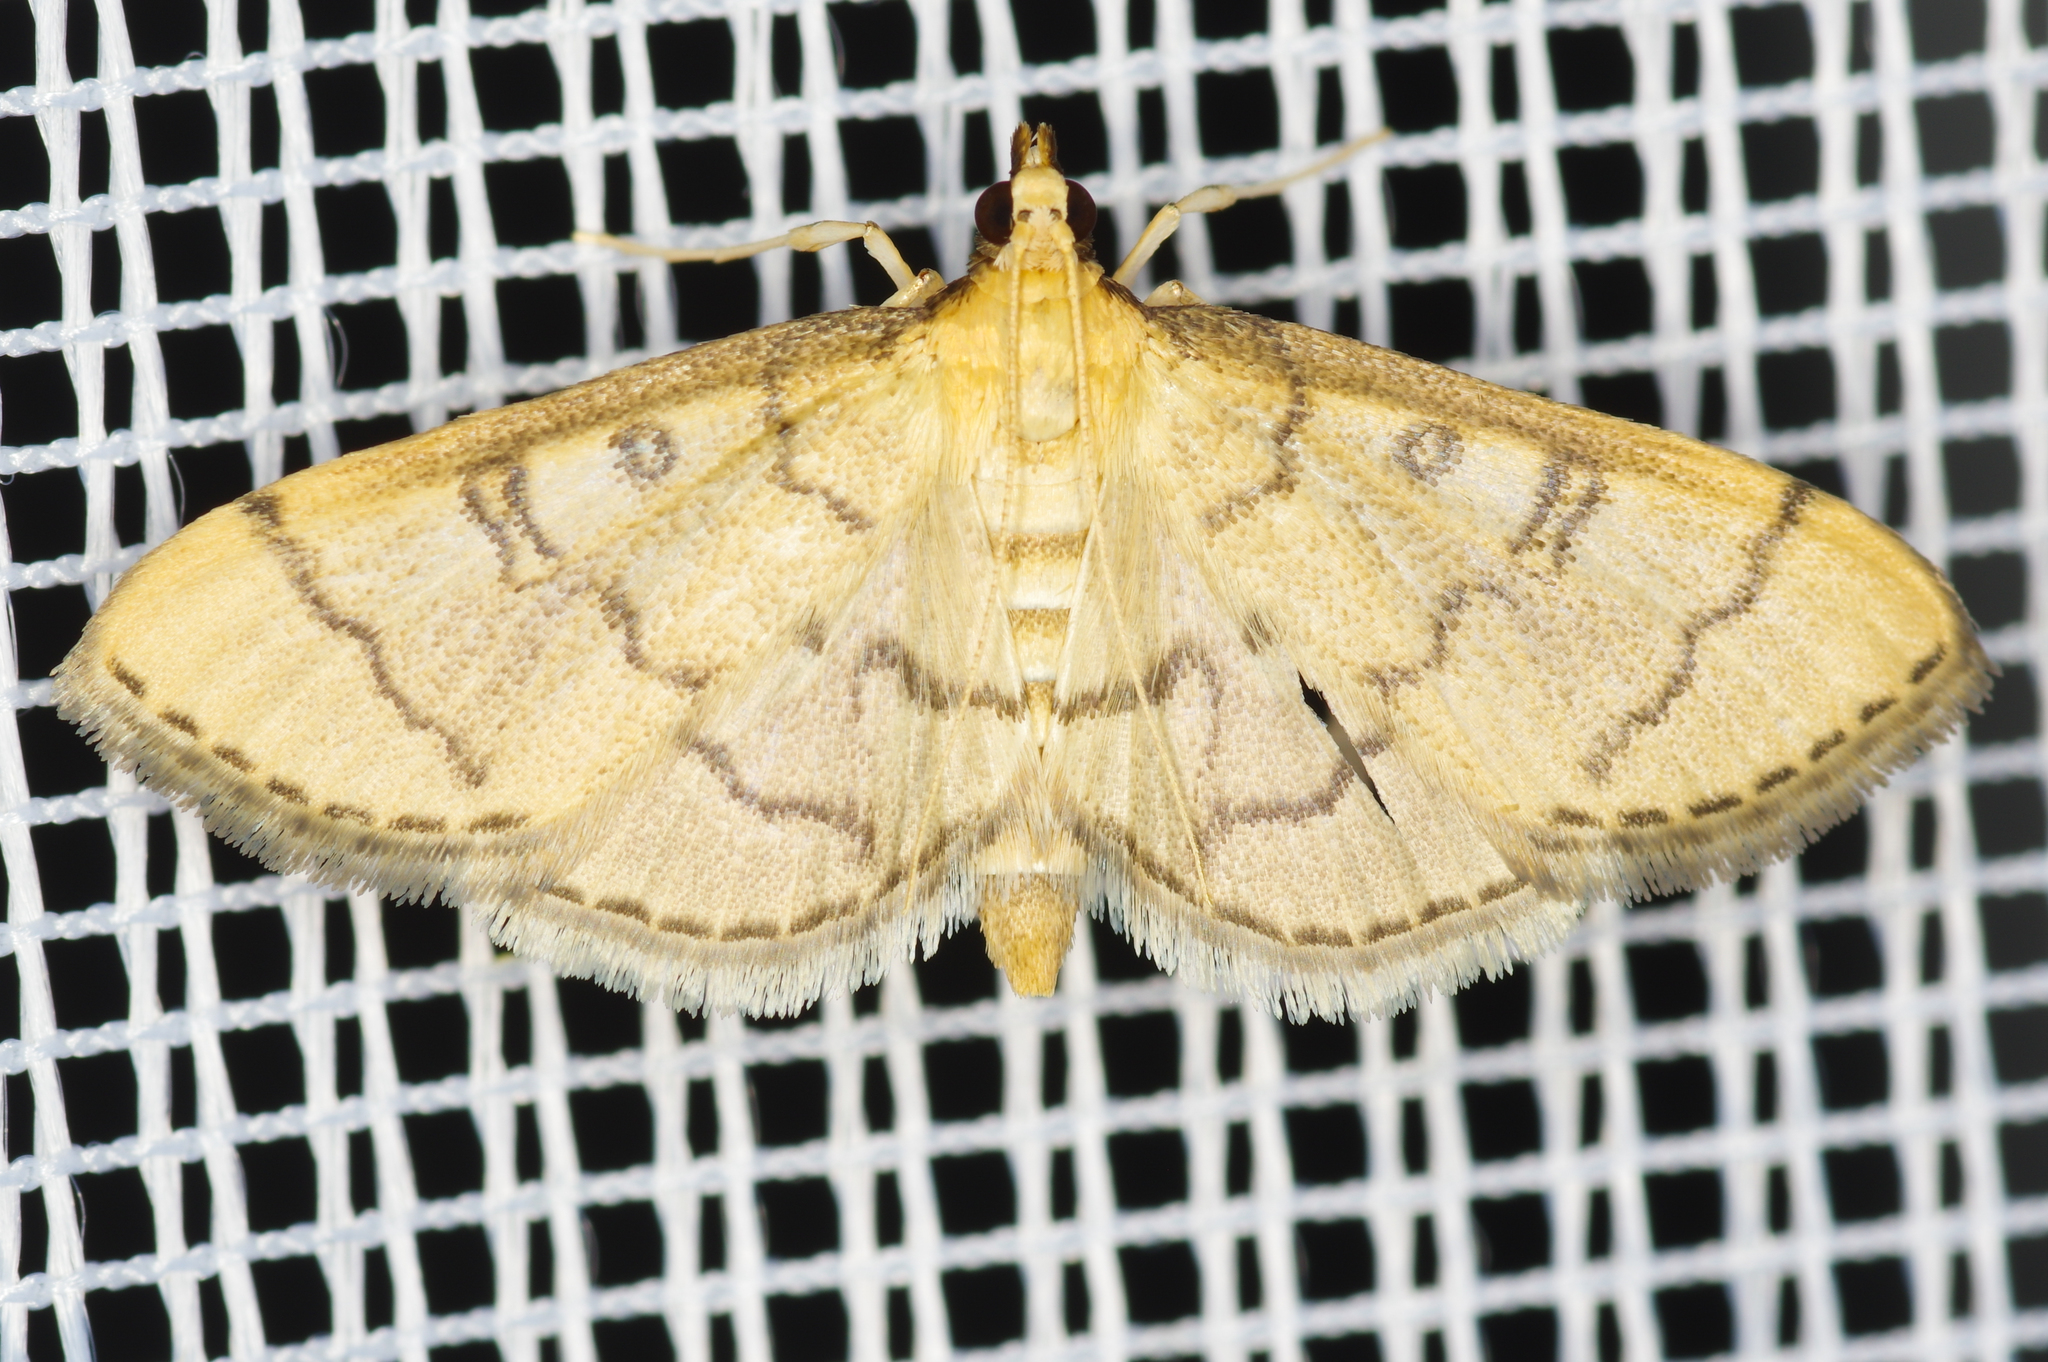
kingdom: Animalia
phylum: Arthropoda
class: Insecta
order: Lepidoptera
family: Crambidae
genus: Lamprosema
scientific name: Lamprosema Blepharomastix ranalis
